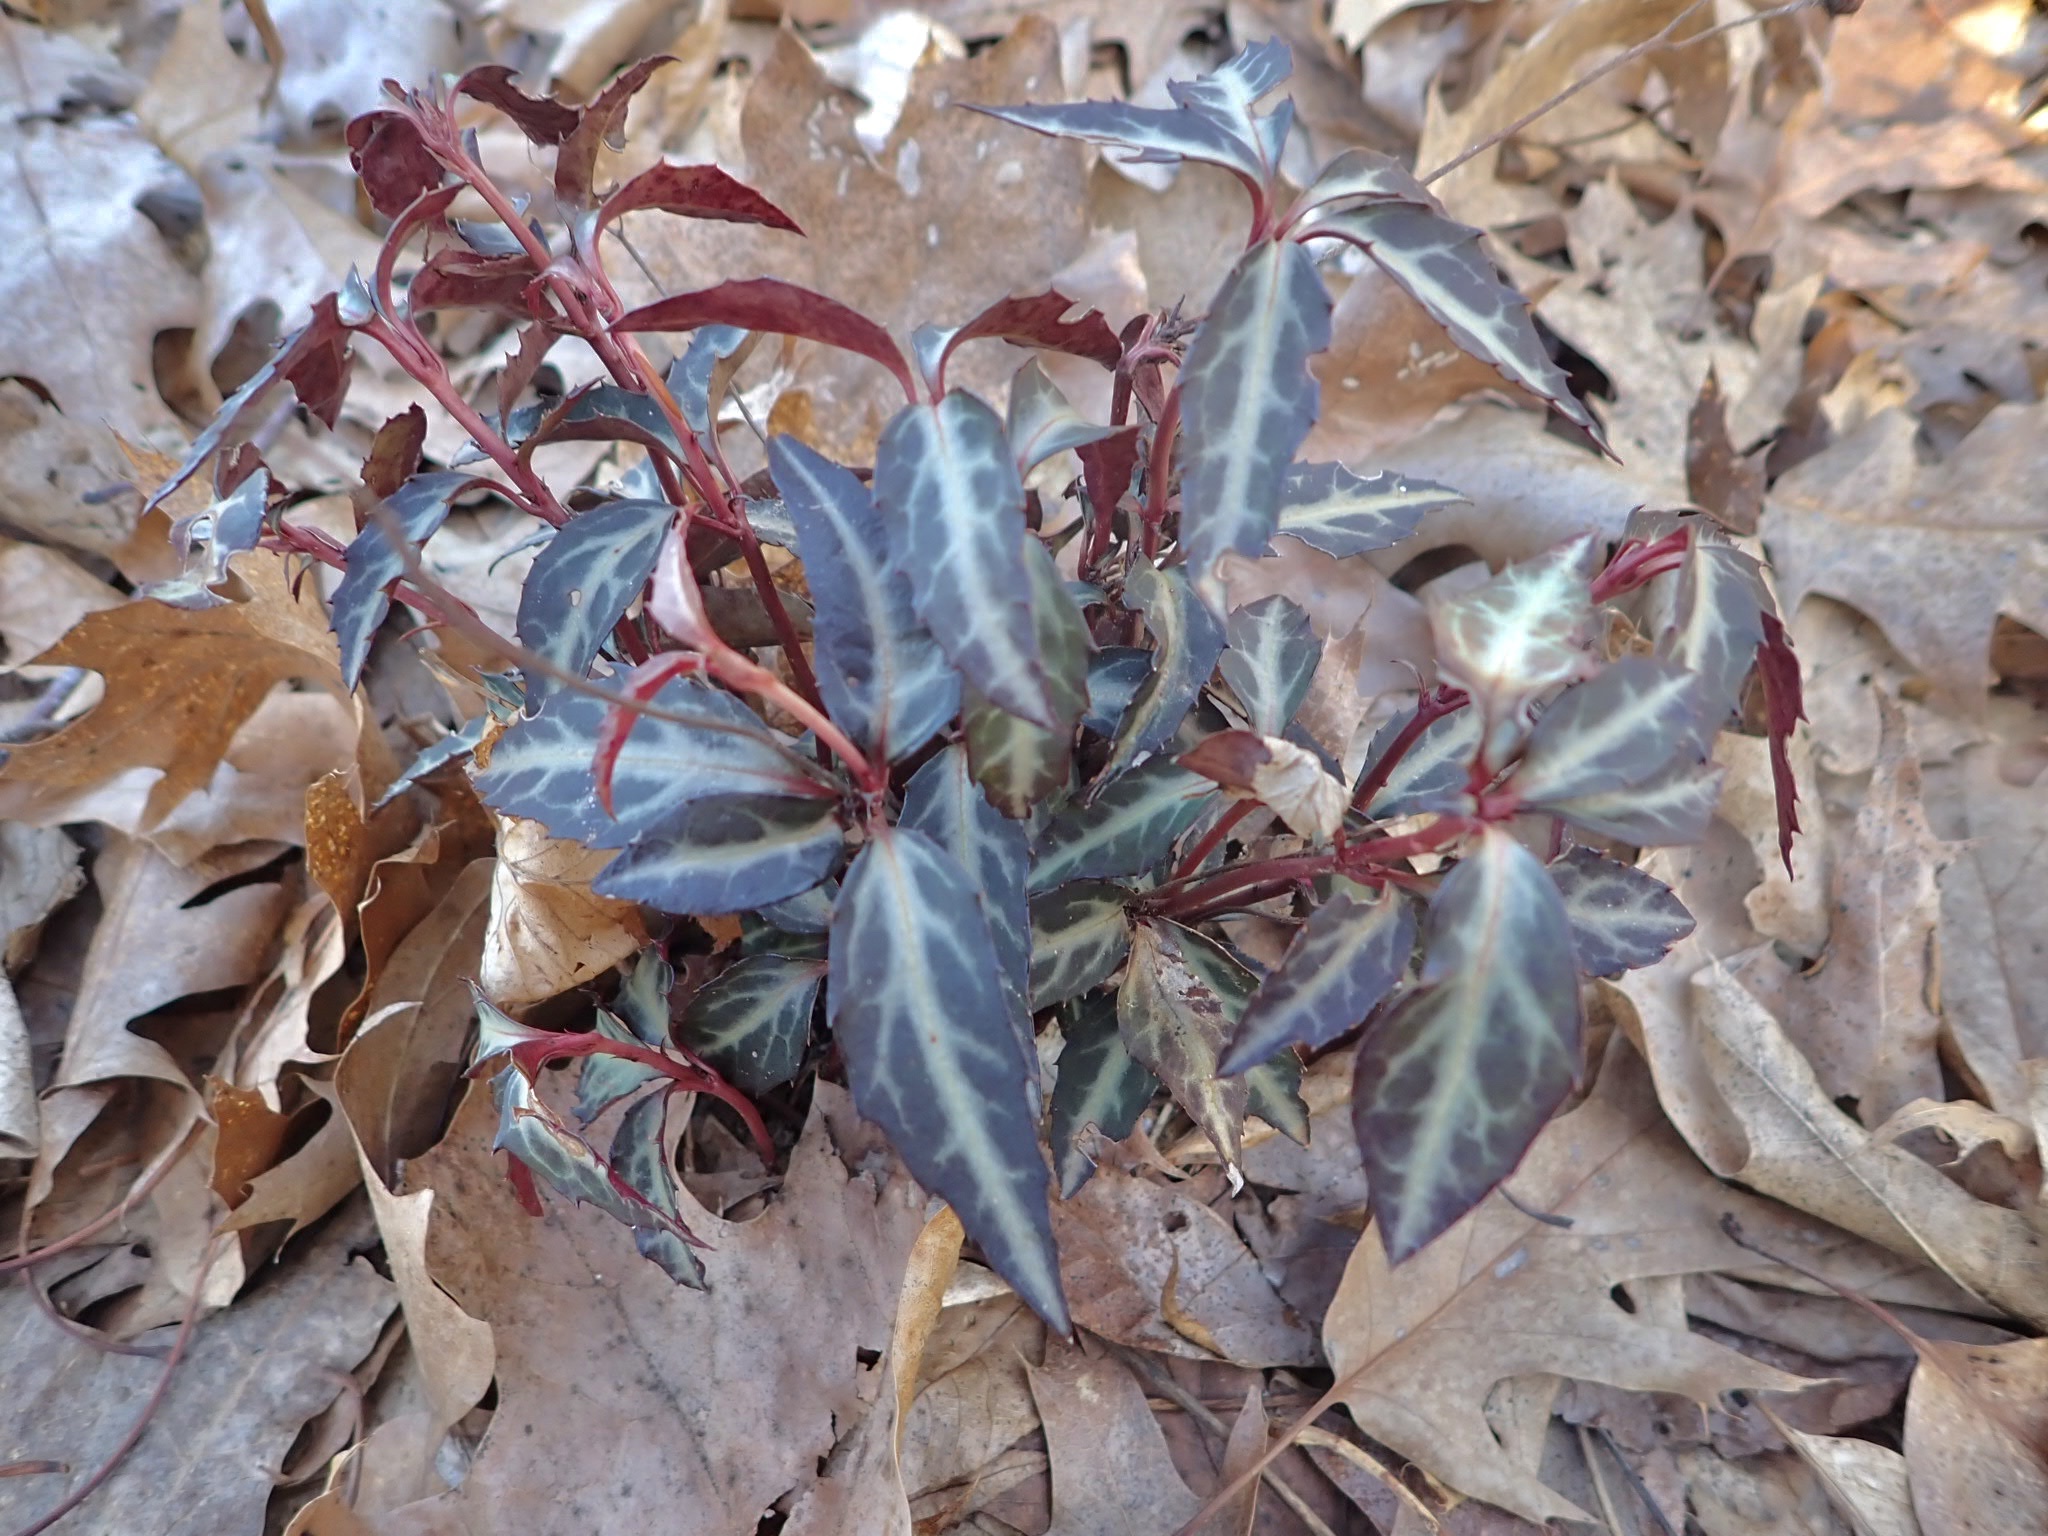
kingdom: Plantae
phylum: Tracheophyta
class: Magnoliopsida
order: Ericales
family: Ericaceae
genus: Chimaphila
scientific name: Chimaphila maculata
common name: Spotted pipsissewa
